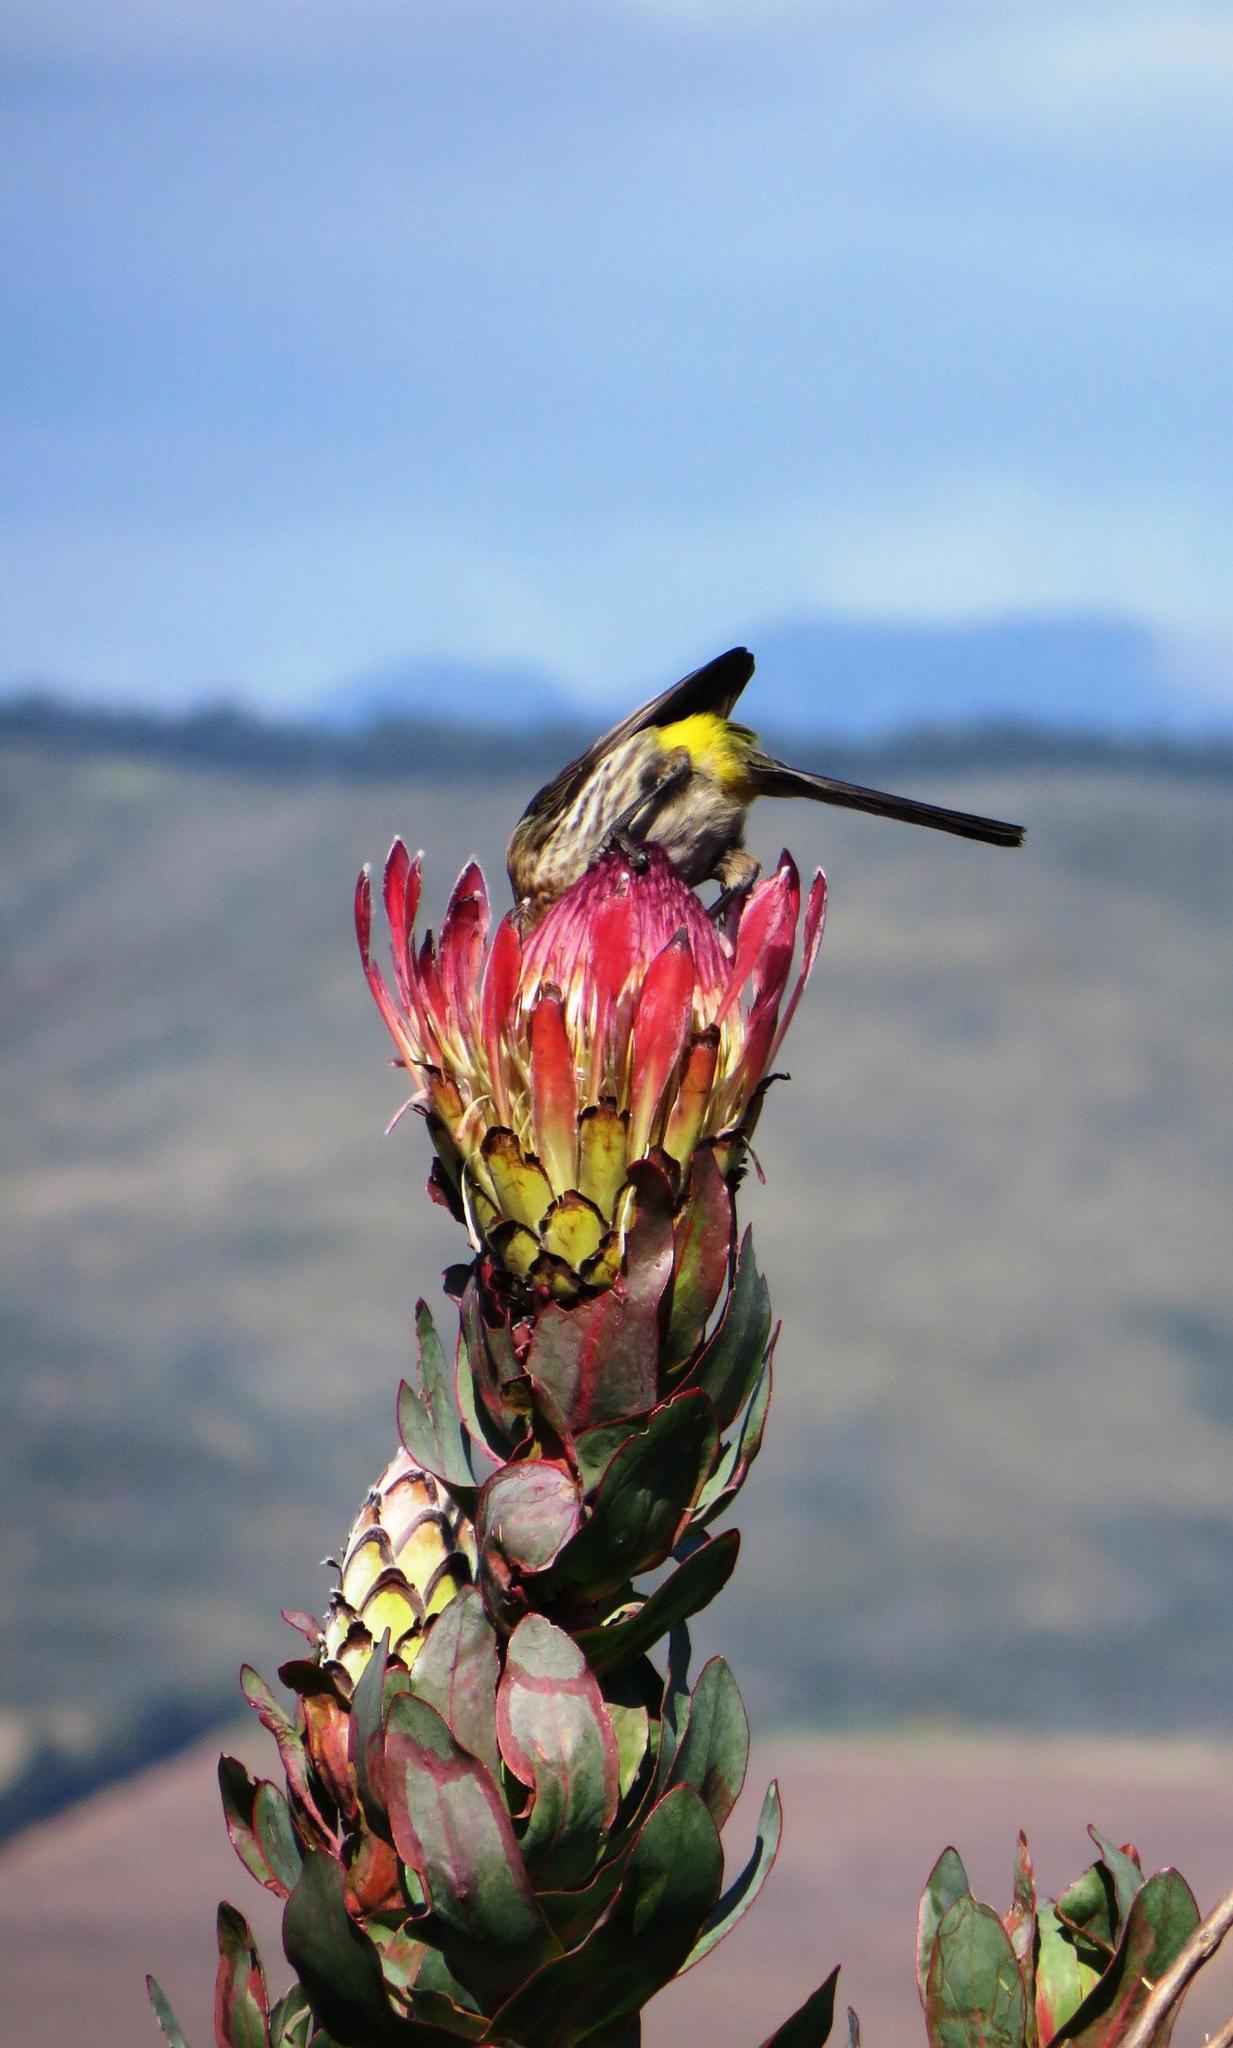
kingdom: Animalia
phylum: Chordata
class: Aves
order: Passeriformes
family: Promeropidae
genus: Promerops
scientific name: Promerops cafer
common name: Cape sugarbird
